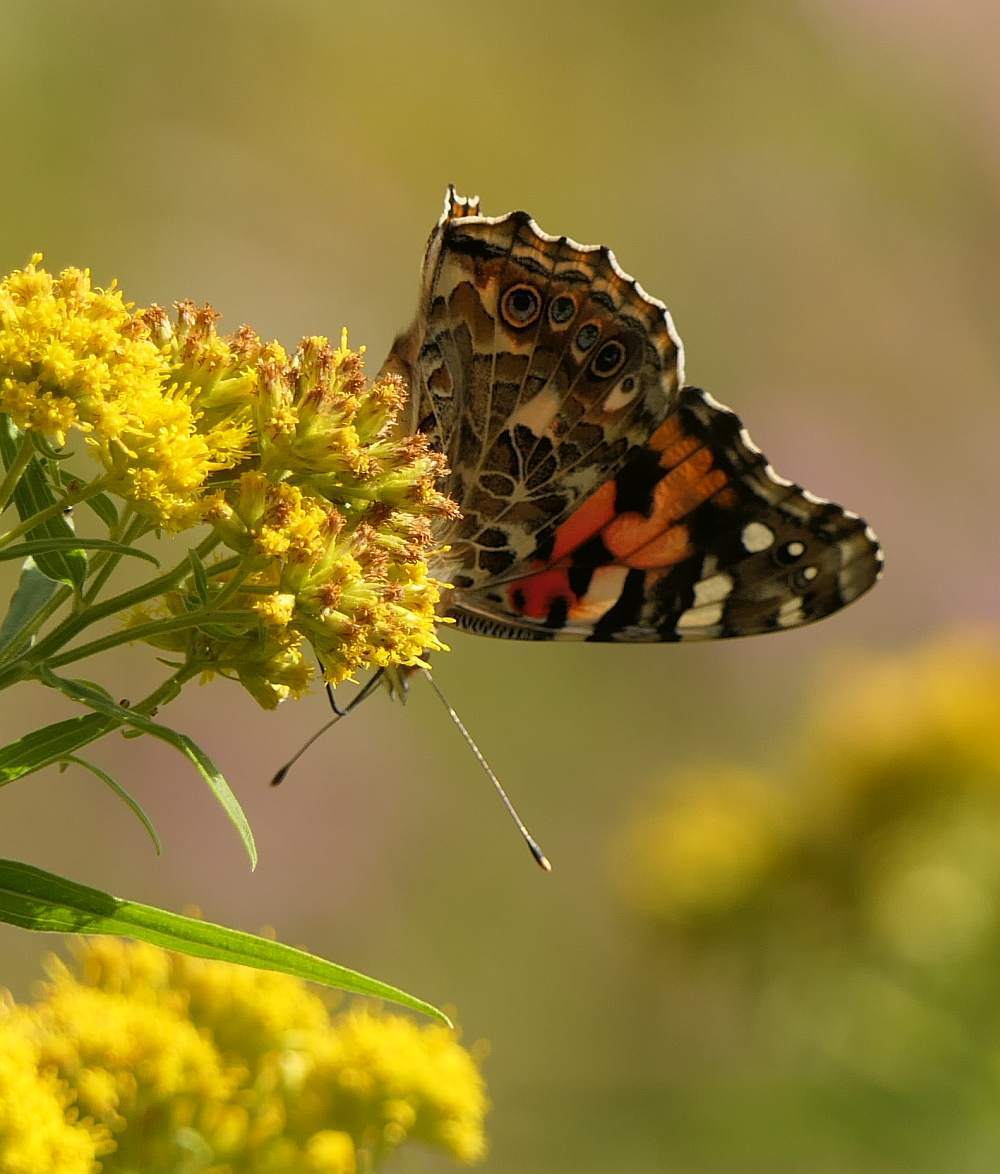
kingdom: Animalia
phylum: Arthropoda
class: Insecta
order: Lepidoptera
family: Nymphalidae
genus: Vanessa
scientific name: Vanessa cardui
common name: Painted lady
